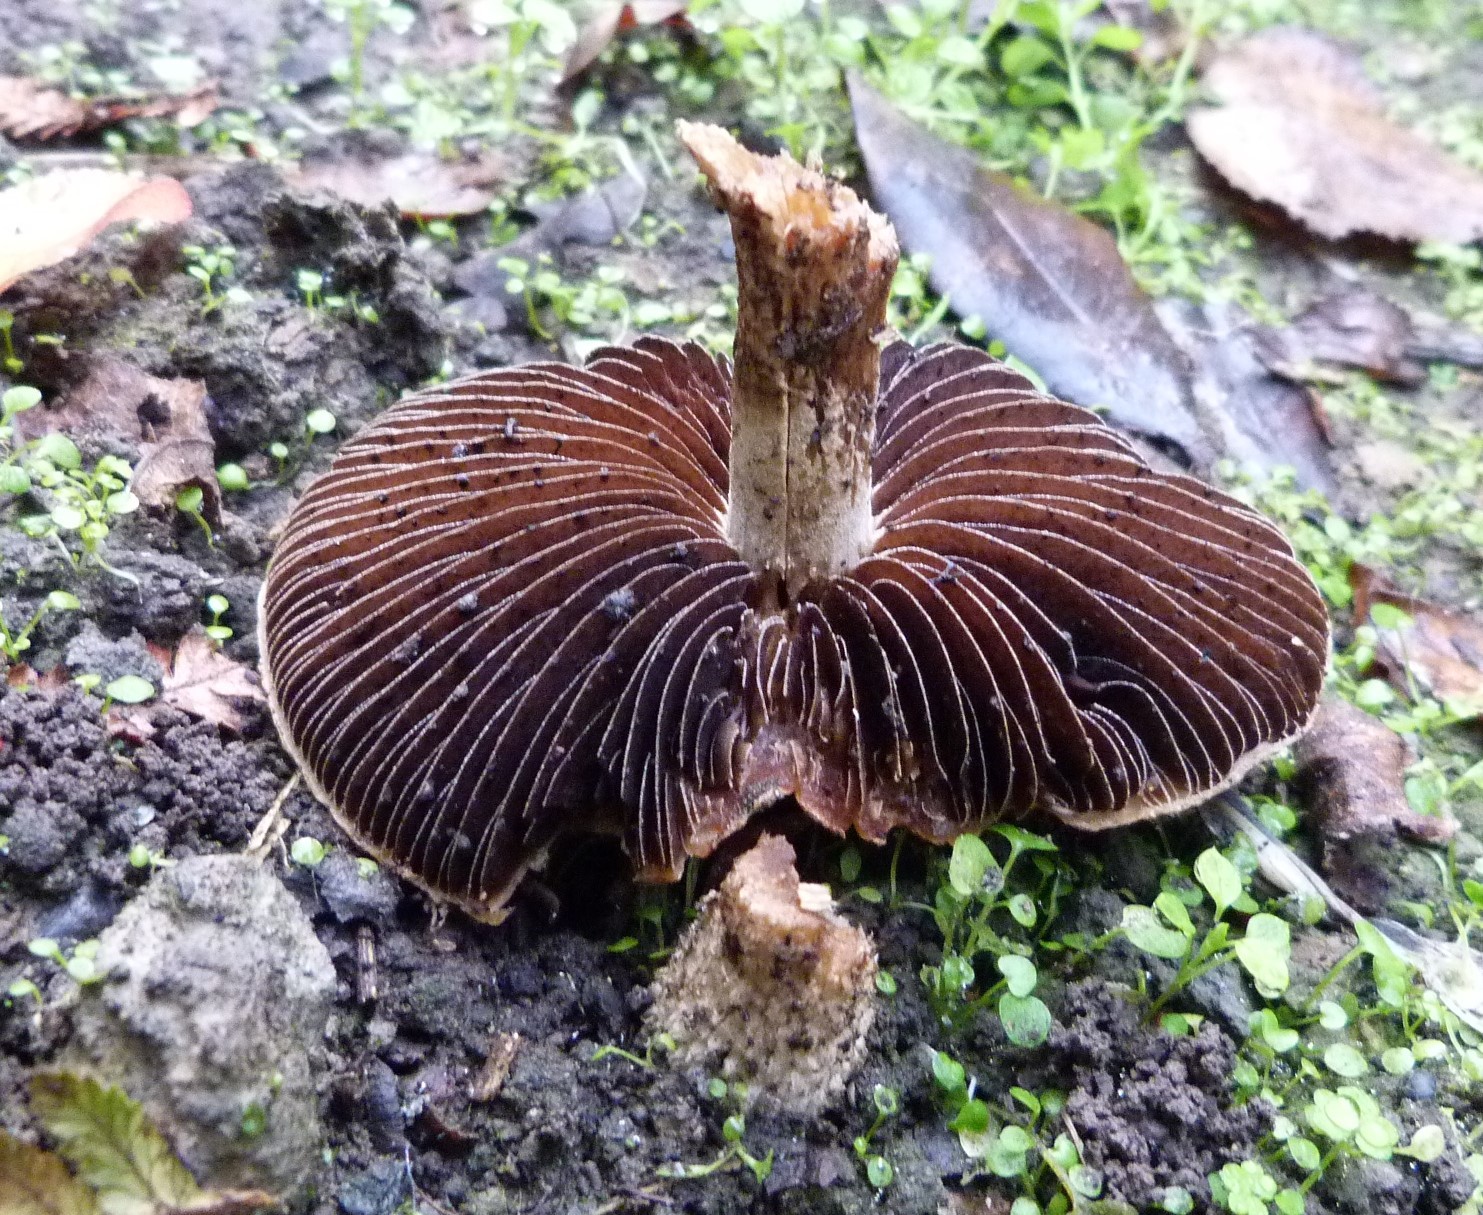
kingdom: Fungi
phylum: Basidiomycota
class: Agaricomycetes
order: Agaricales
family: Psathyrellaceae
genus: Psathyrella
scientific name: Psathyrella asperospora
